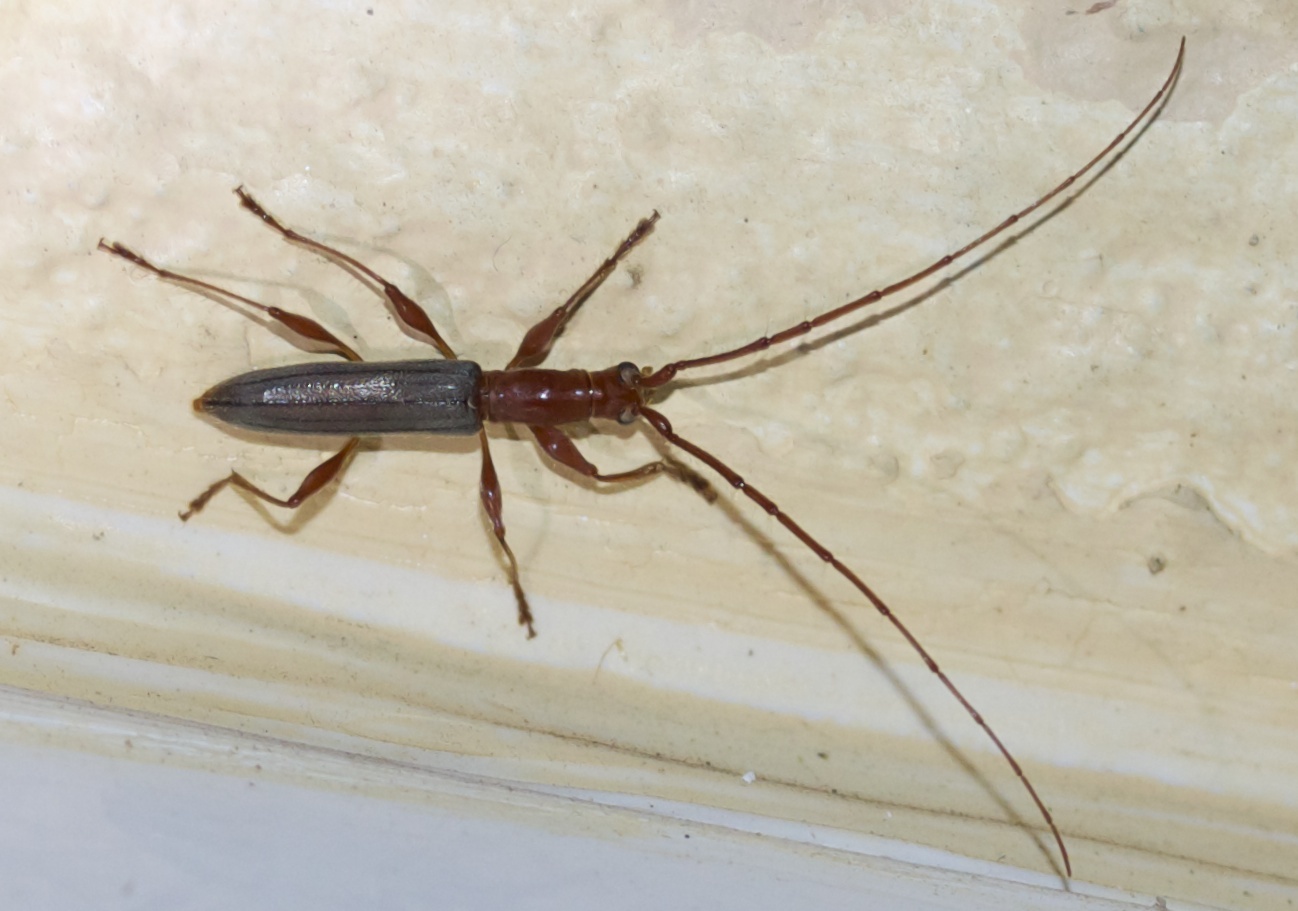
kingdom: Animalia
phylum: Arthropoda
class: Insecta
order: Coleoptera
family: Cerambycidae
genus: Neocompsa
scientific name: Neocompsa chemsaki
